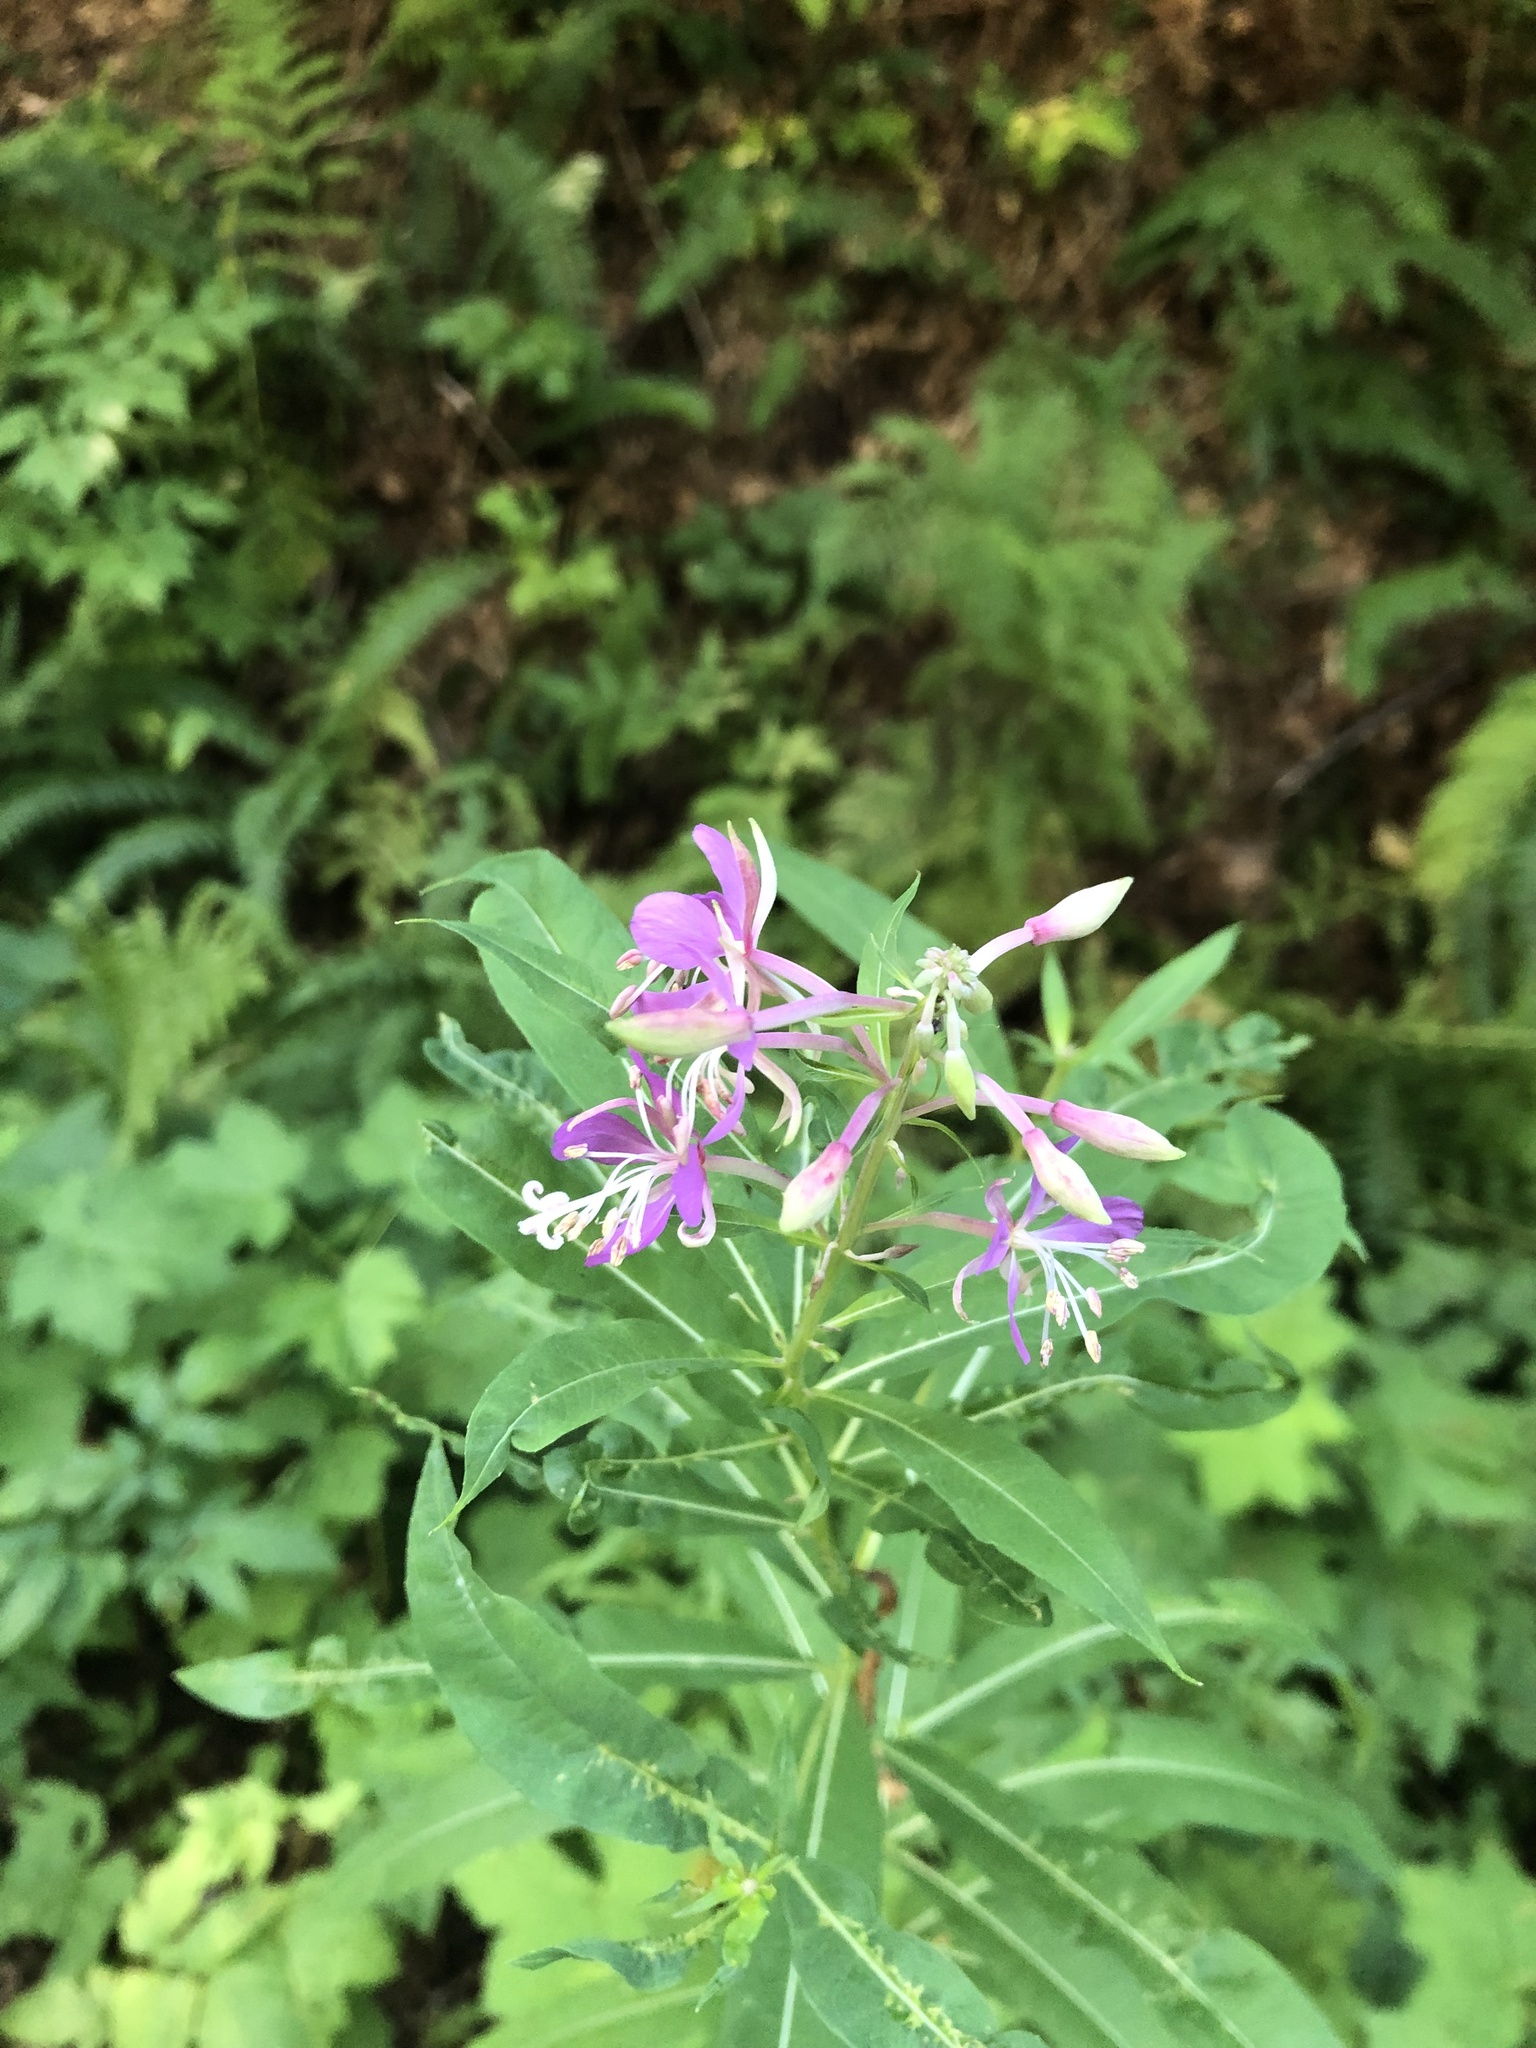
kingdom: Plantae
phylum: Tracheophyta
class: Magnoliopsida
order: Myrtales
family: Onagraceae
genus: Chamaenerion
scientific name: Chamaenerion angustifolium
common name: Fireweed
